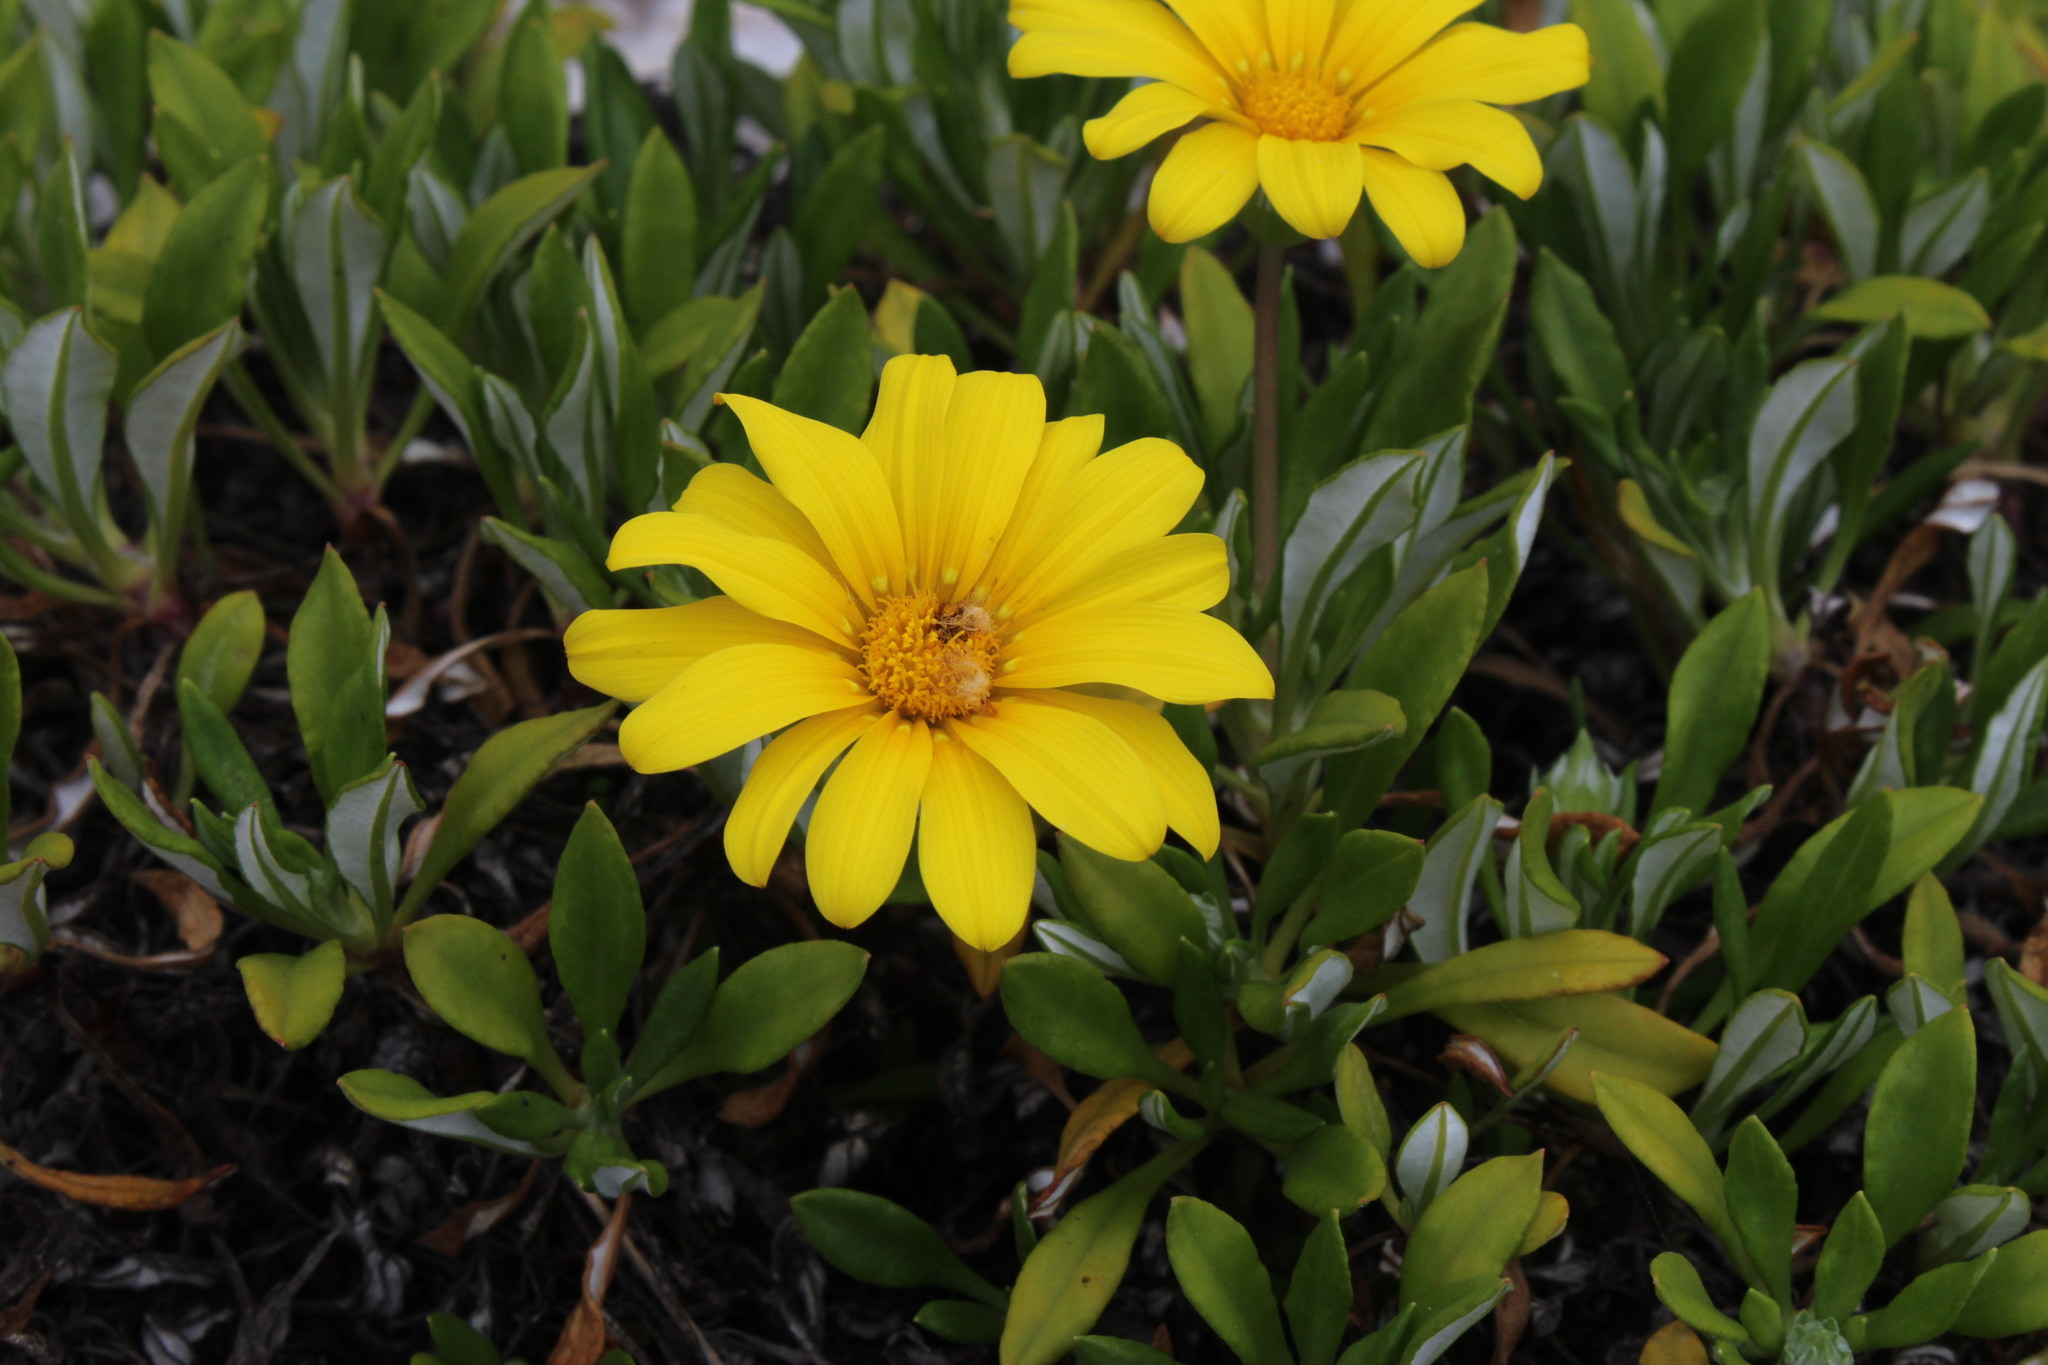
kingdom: Plantae
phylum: Tracheophyta
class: Magnoliopsida
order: Asterales
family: Asteraceae
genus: Gazania
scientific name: Gazania rigens
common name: Treasureflower
